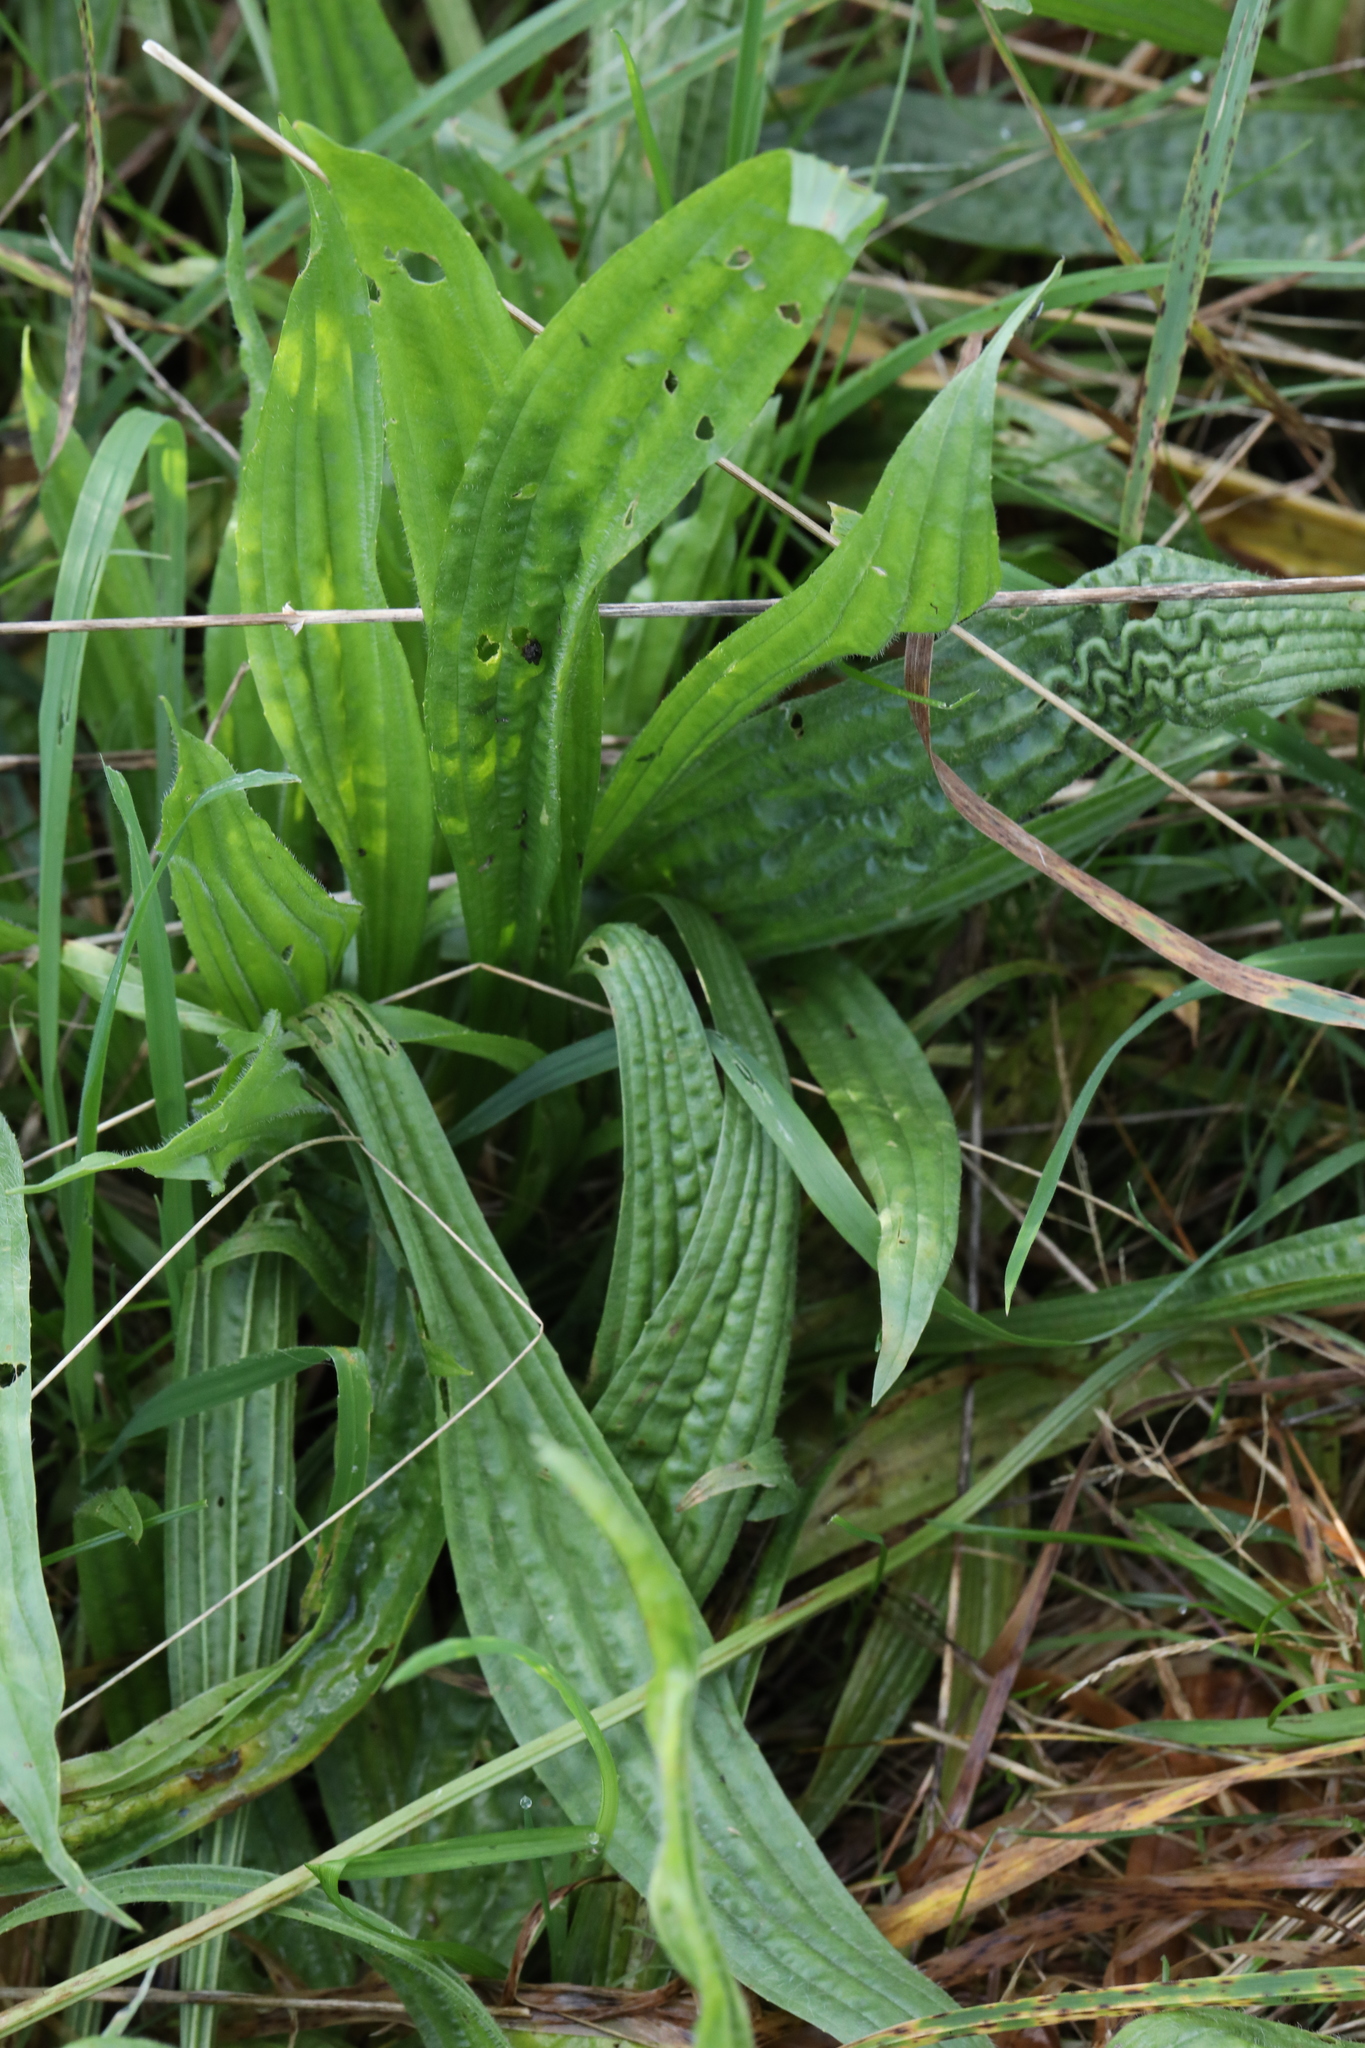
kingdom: Plantae
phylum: Tracheophyta
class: Magnoliopsida
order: Lamiales
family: Plantaginaceae
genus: Plantago
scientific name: Plantago lanceolata
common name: Ribwort plantain
